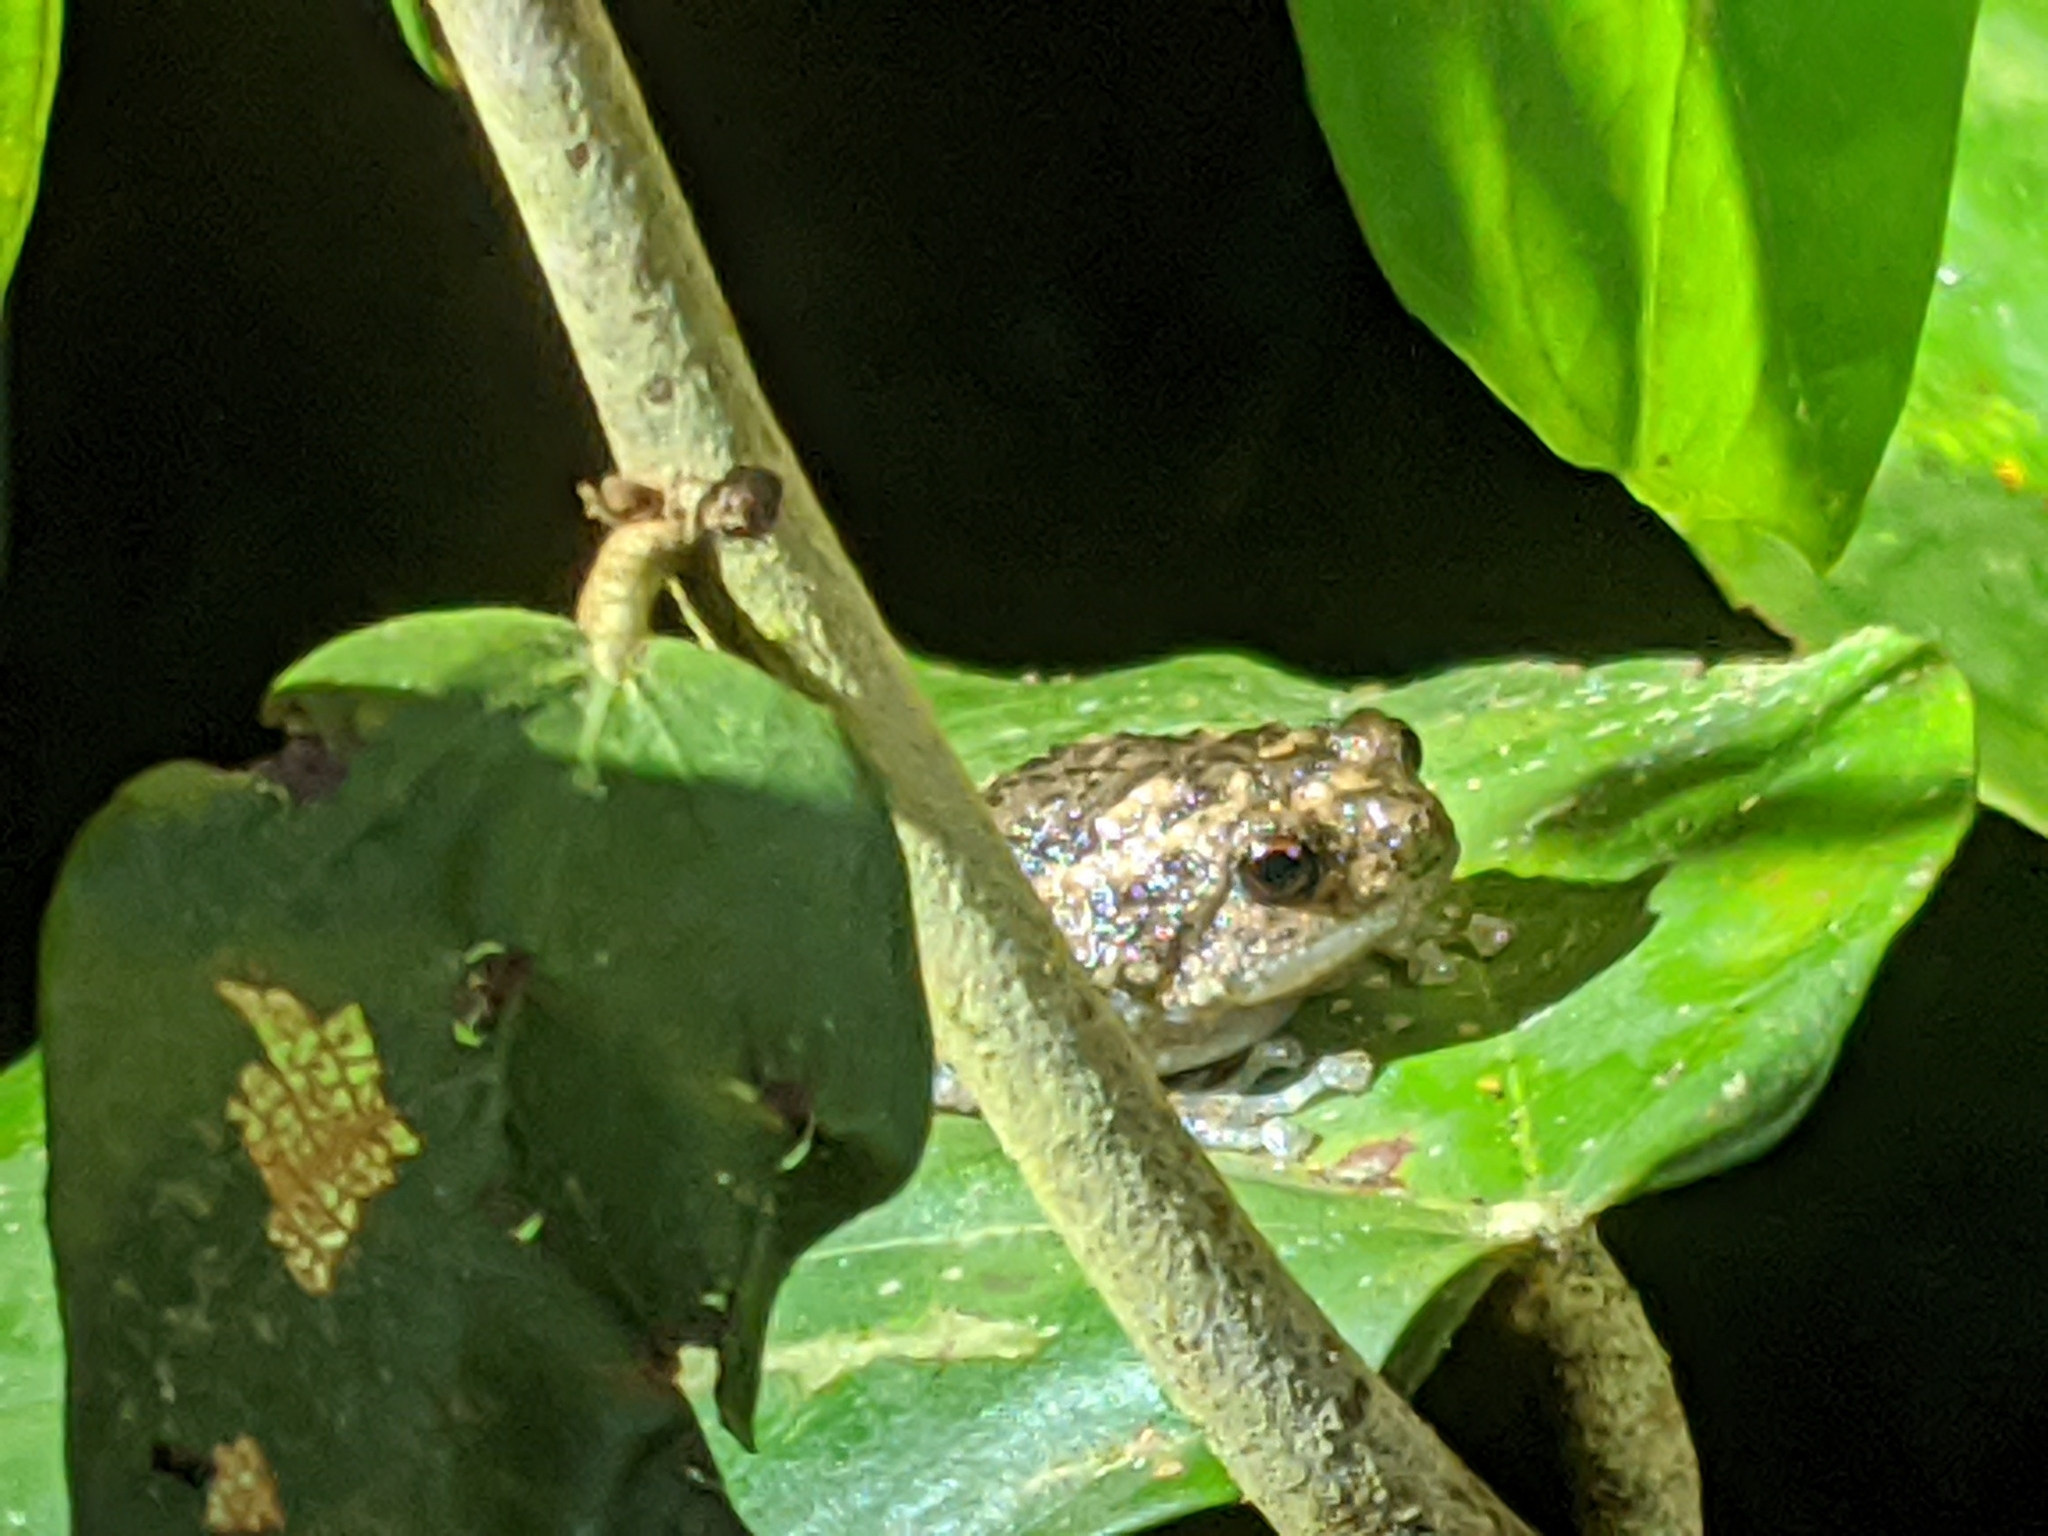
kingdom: Animalia
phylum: Chordata
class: Amphibia
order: Anura
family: Microhylidae
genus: Kaloula
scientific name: Kaloula baleata
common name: Brown,javanese bullfrog
